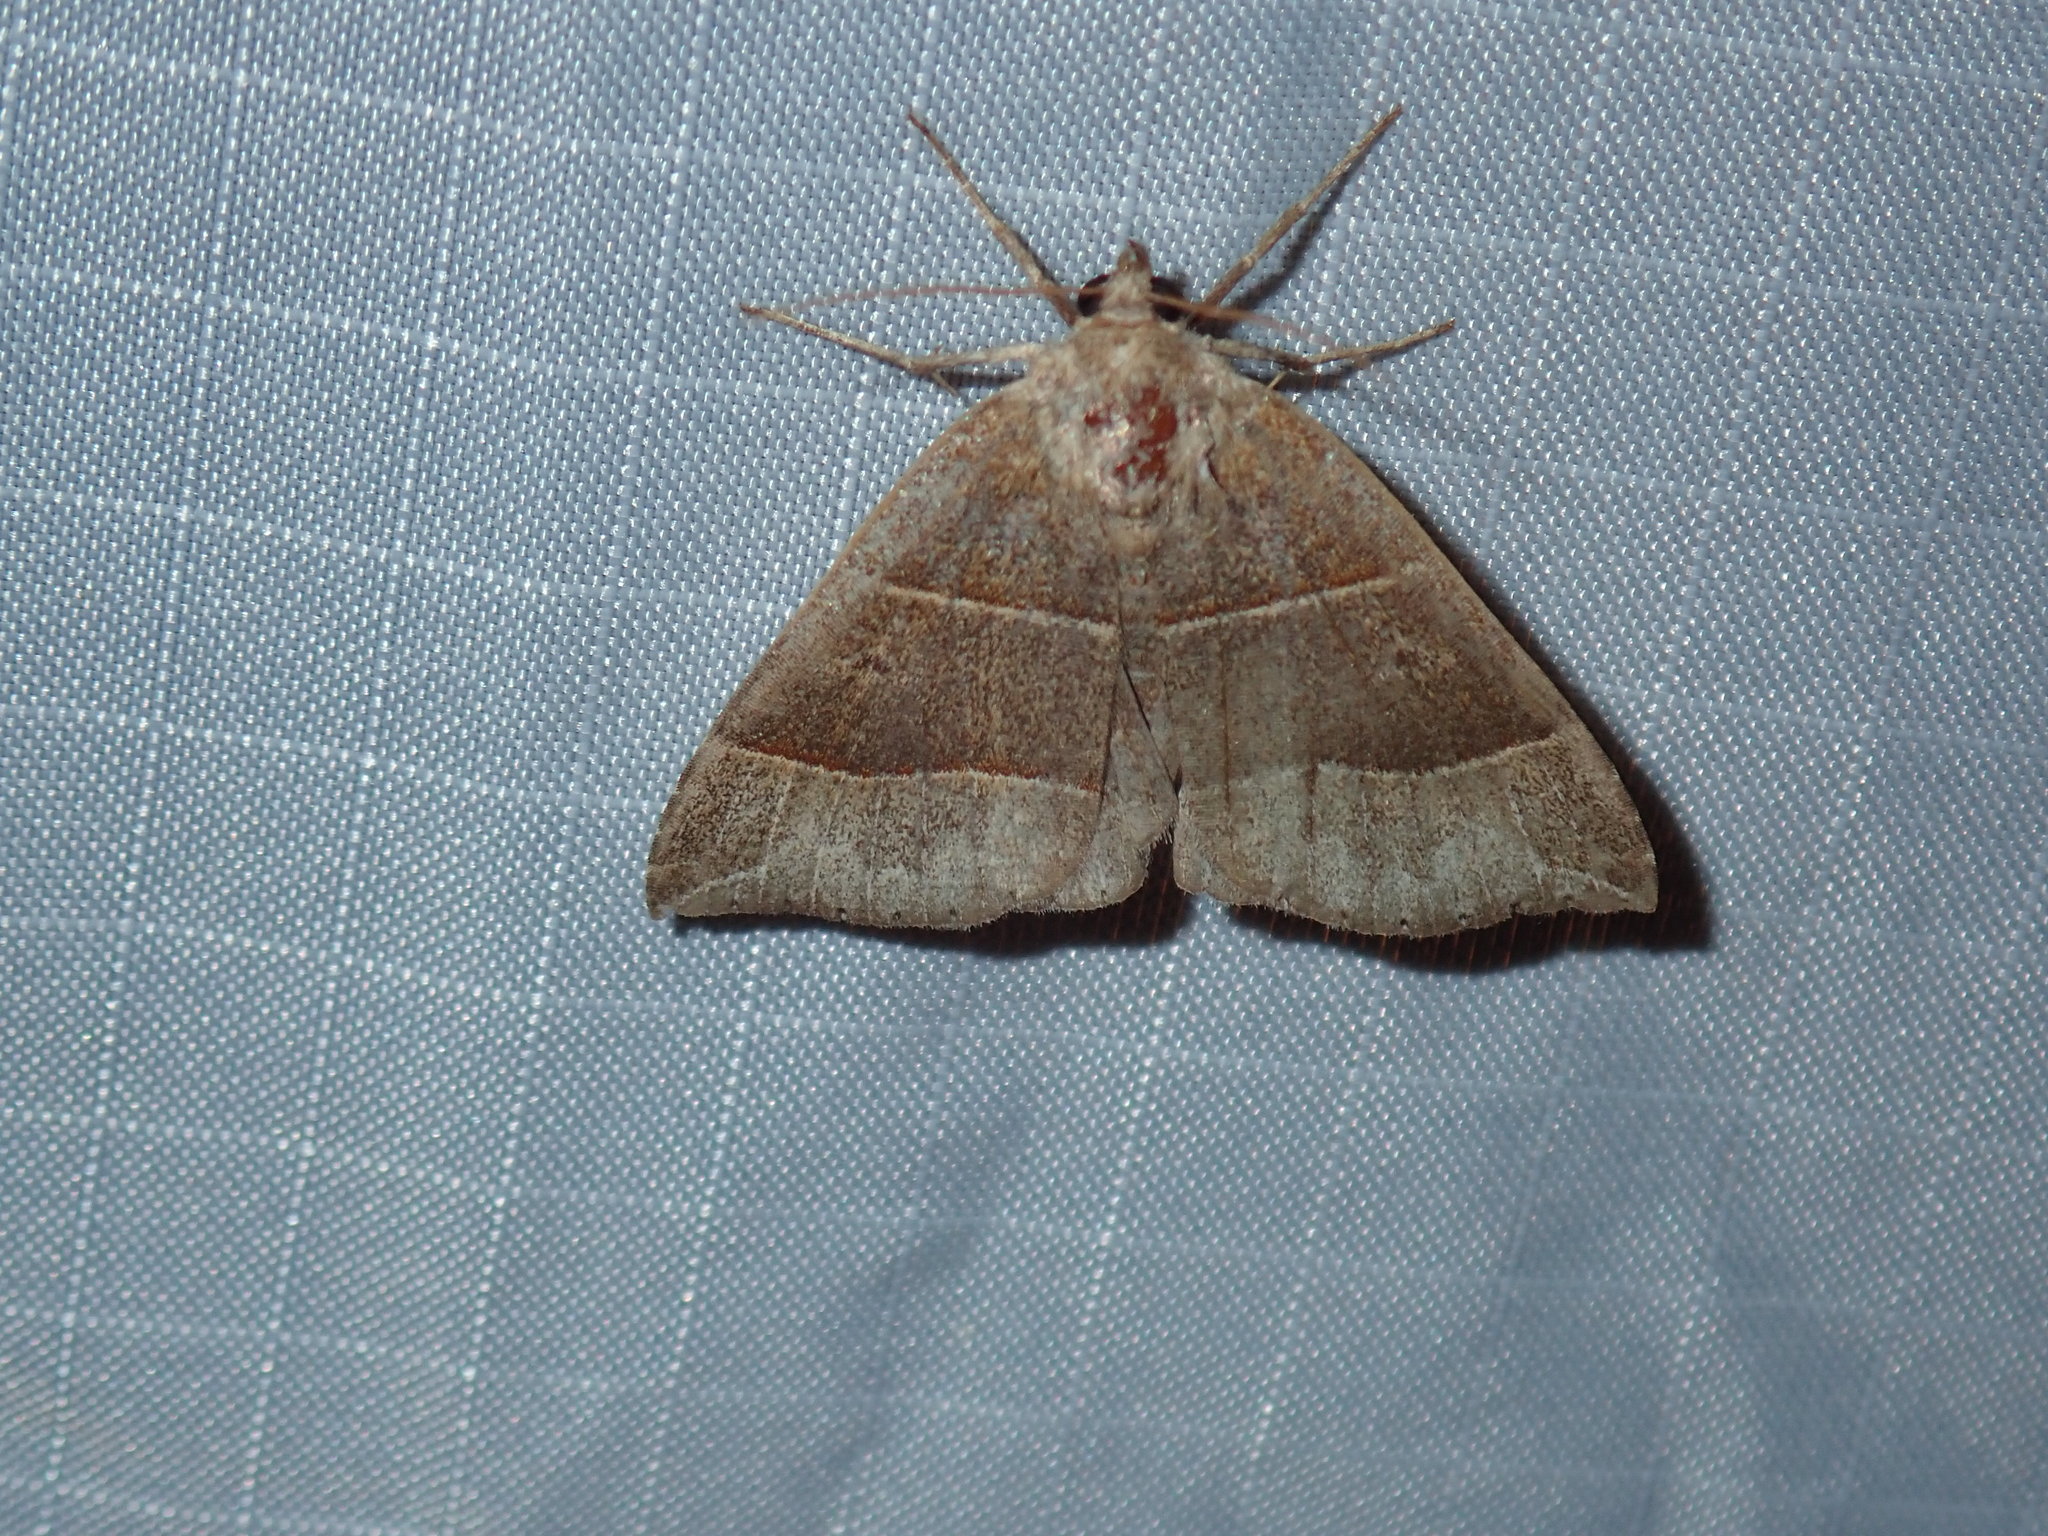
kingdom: Animalia
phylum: Arthropoda
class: Insecta
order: Lepidoptera
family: Erebidae
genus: Parallelia
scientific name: Parallelia bistriaris
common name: Maple looper moth
